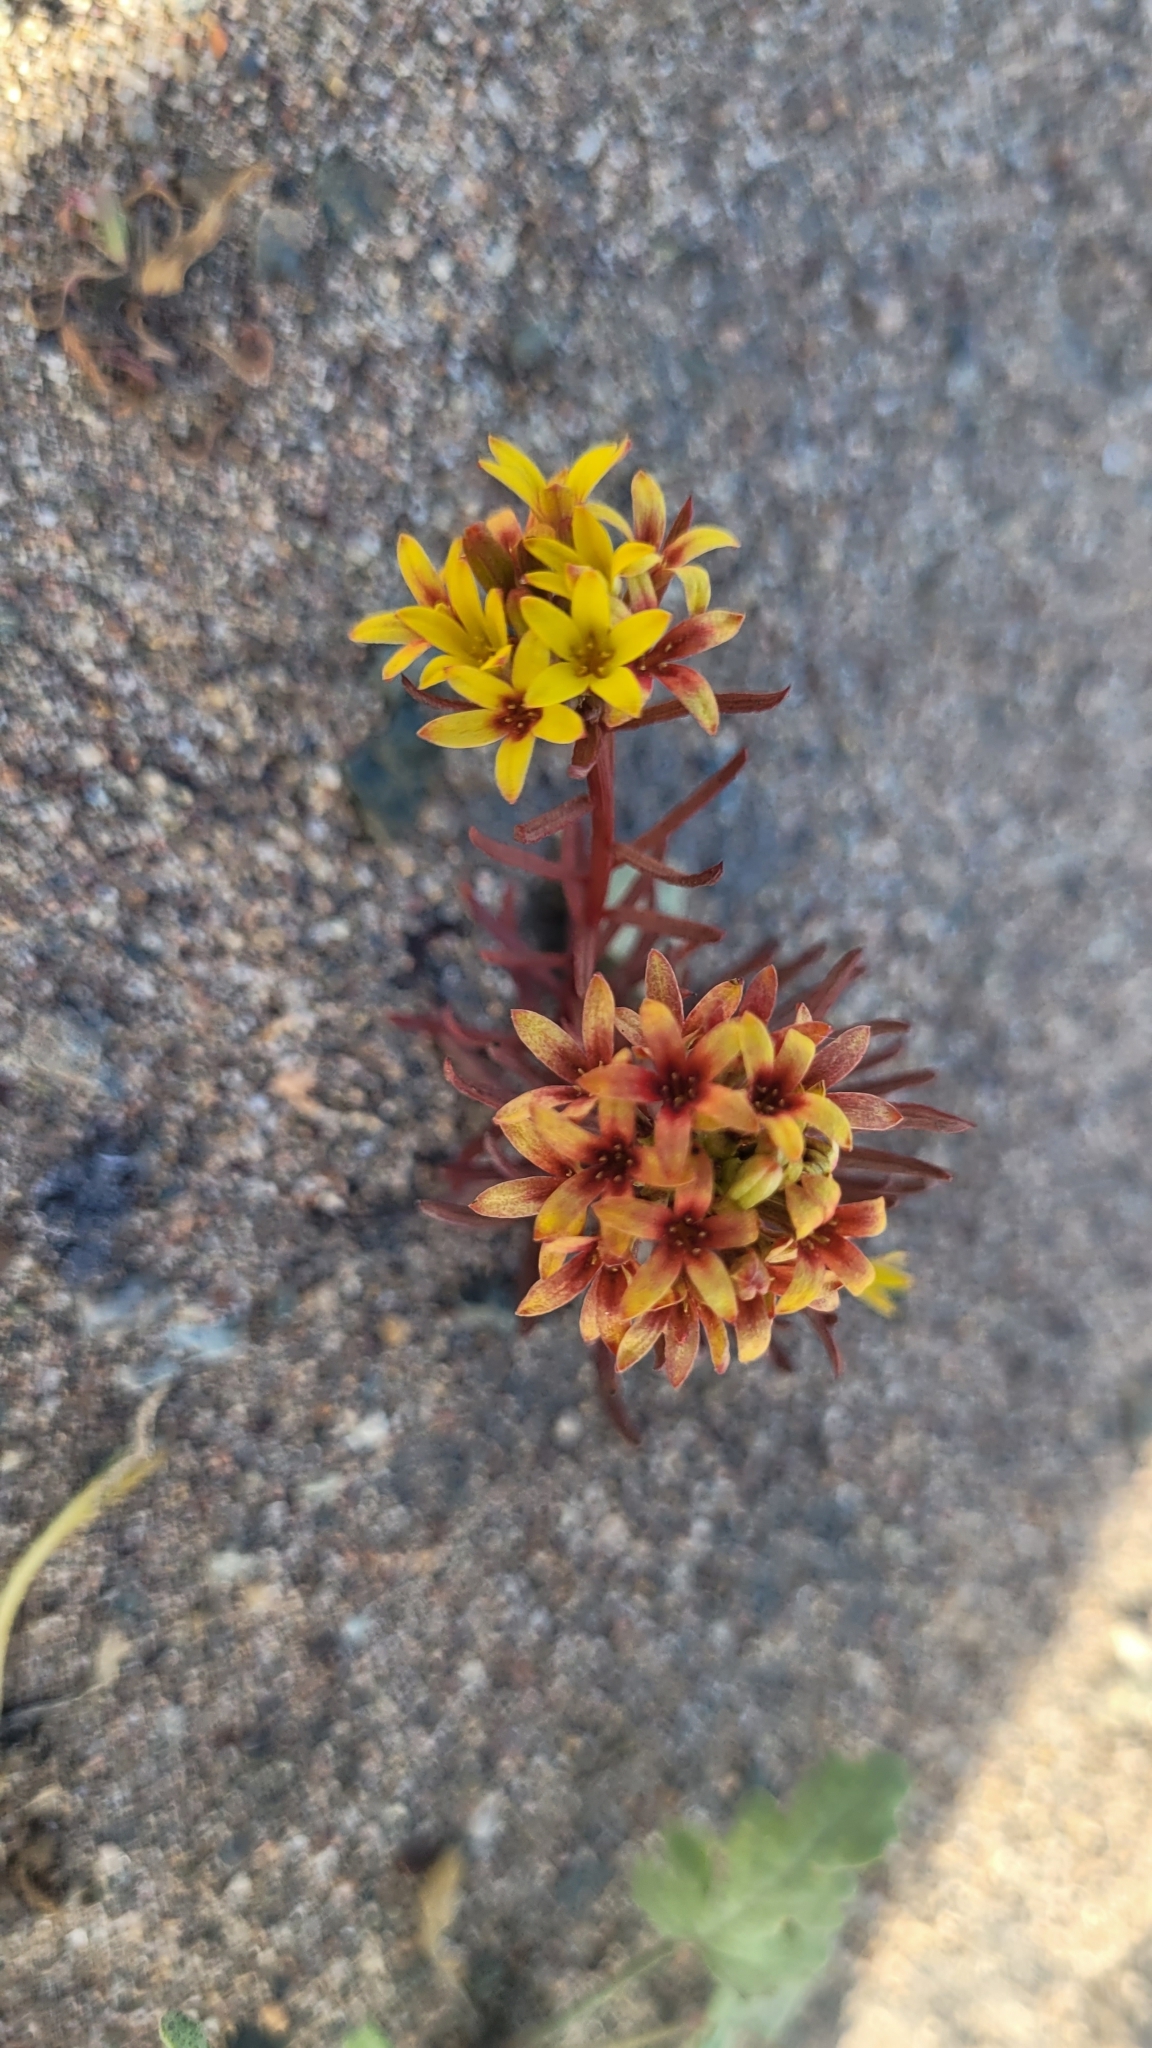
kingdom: Plantae
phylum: Tracheophyta
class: Magnoliopsida
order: Santalales
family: Schoepfiaceae
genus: Quinchamalium
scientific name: Quinchamalium chilense
